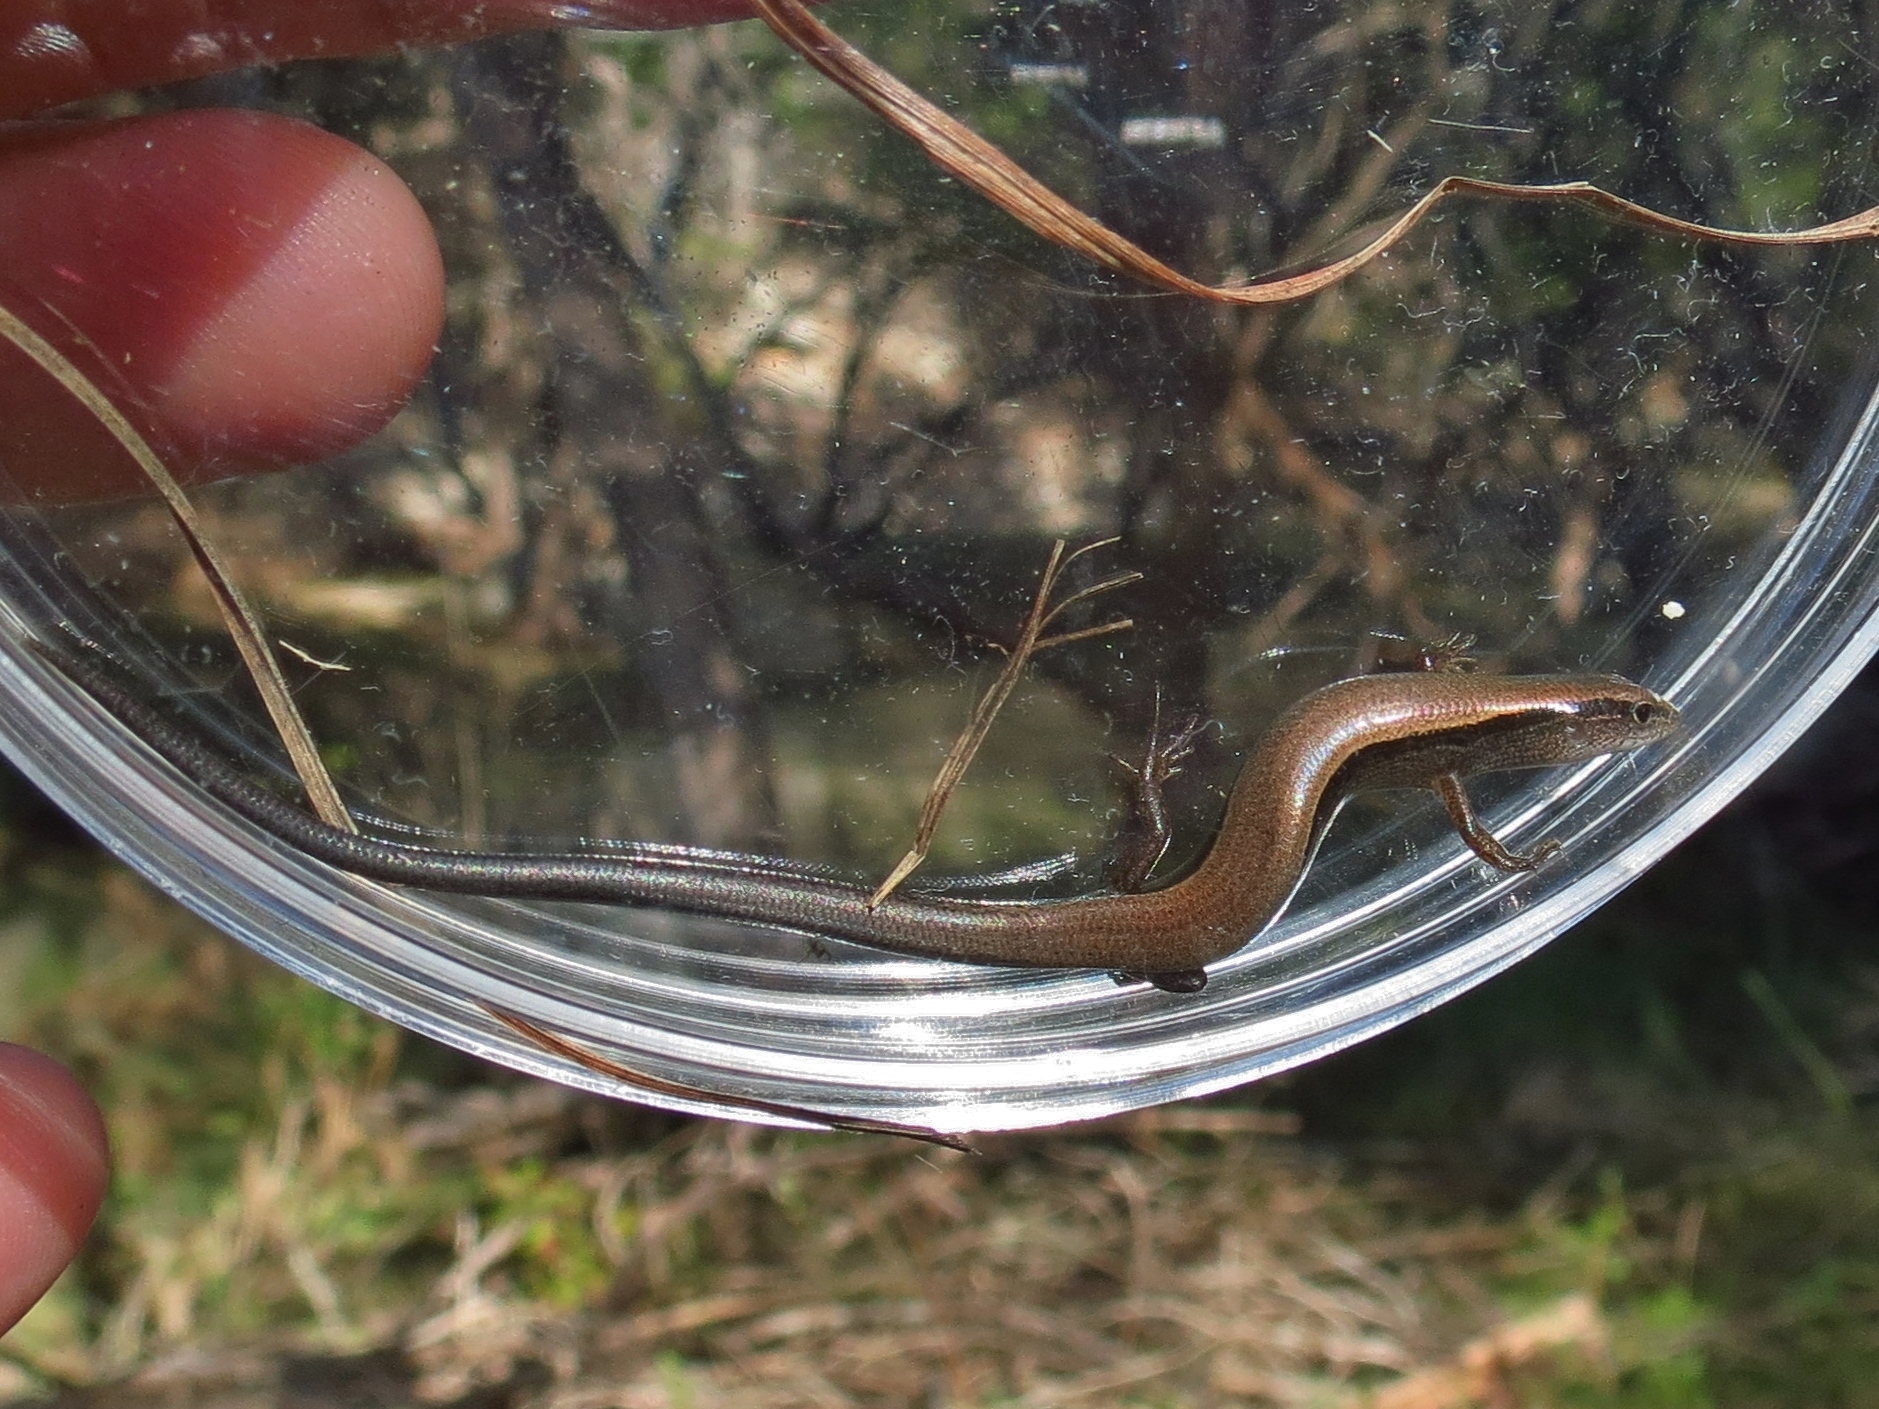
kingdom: Animalia
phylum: Chordata
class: Squamata
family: Scincidae
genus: Scincella
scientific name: Scincella lateralis
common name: Ground skink
